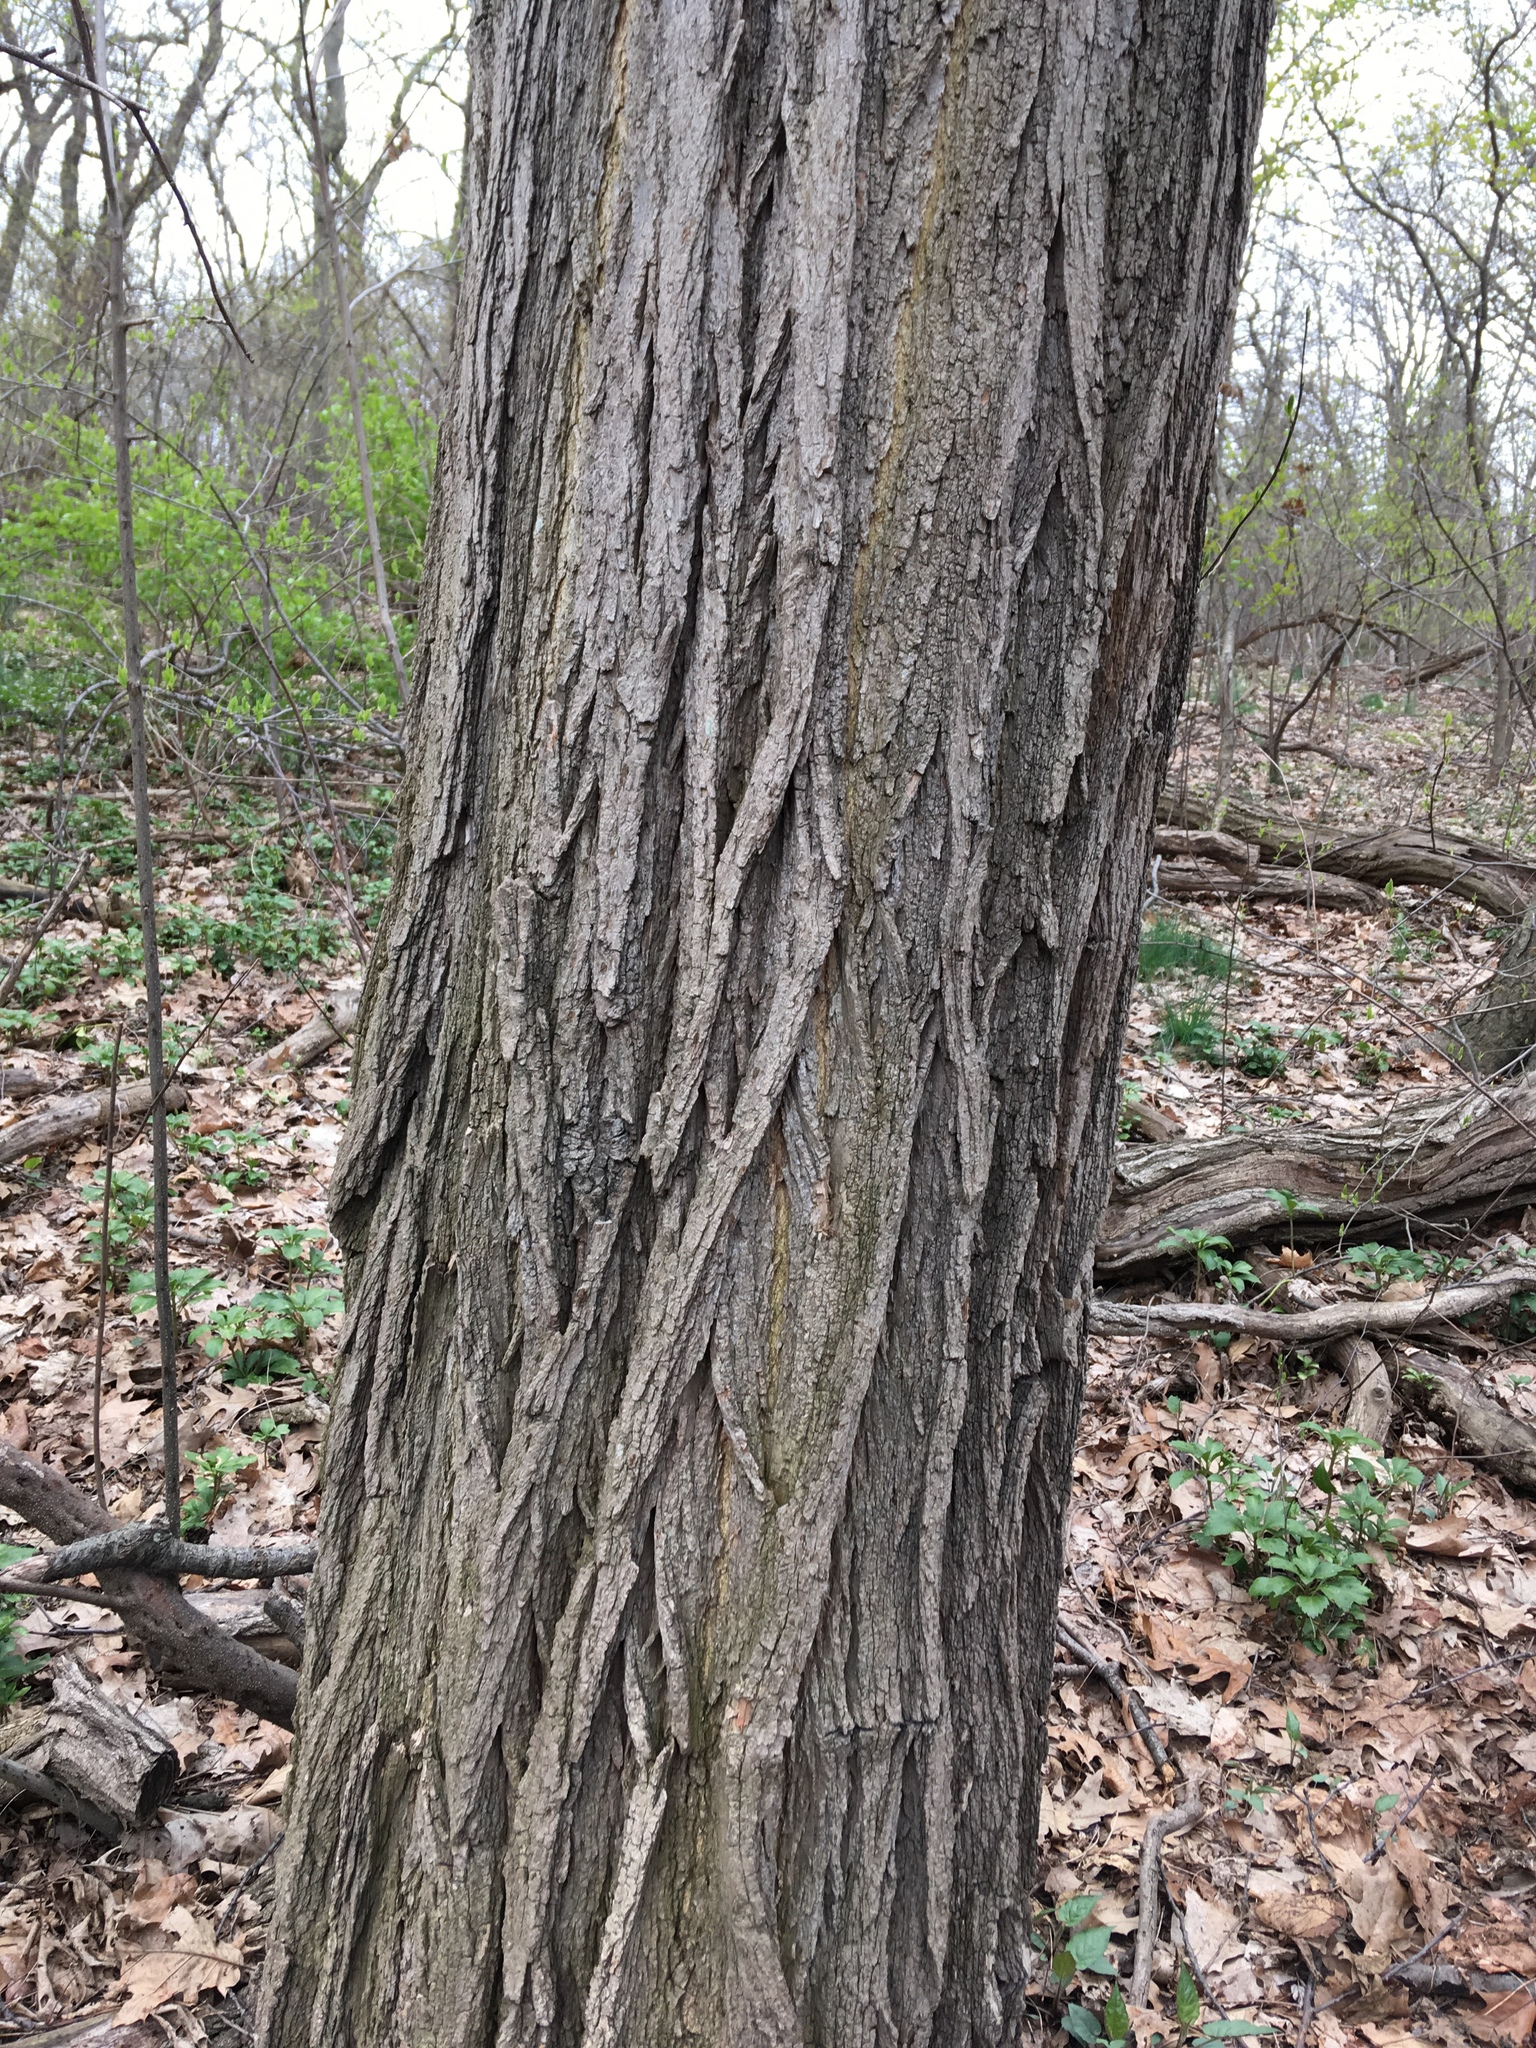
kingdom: Plantae
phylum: Tracheophyta
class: Magnoliopsida
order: Fabales
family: Fabaceae
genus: Robinia
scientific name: Robinia pseudoacacia
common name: Black locust
